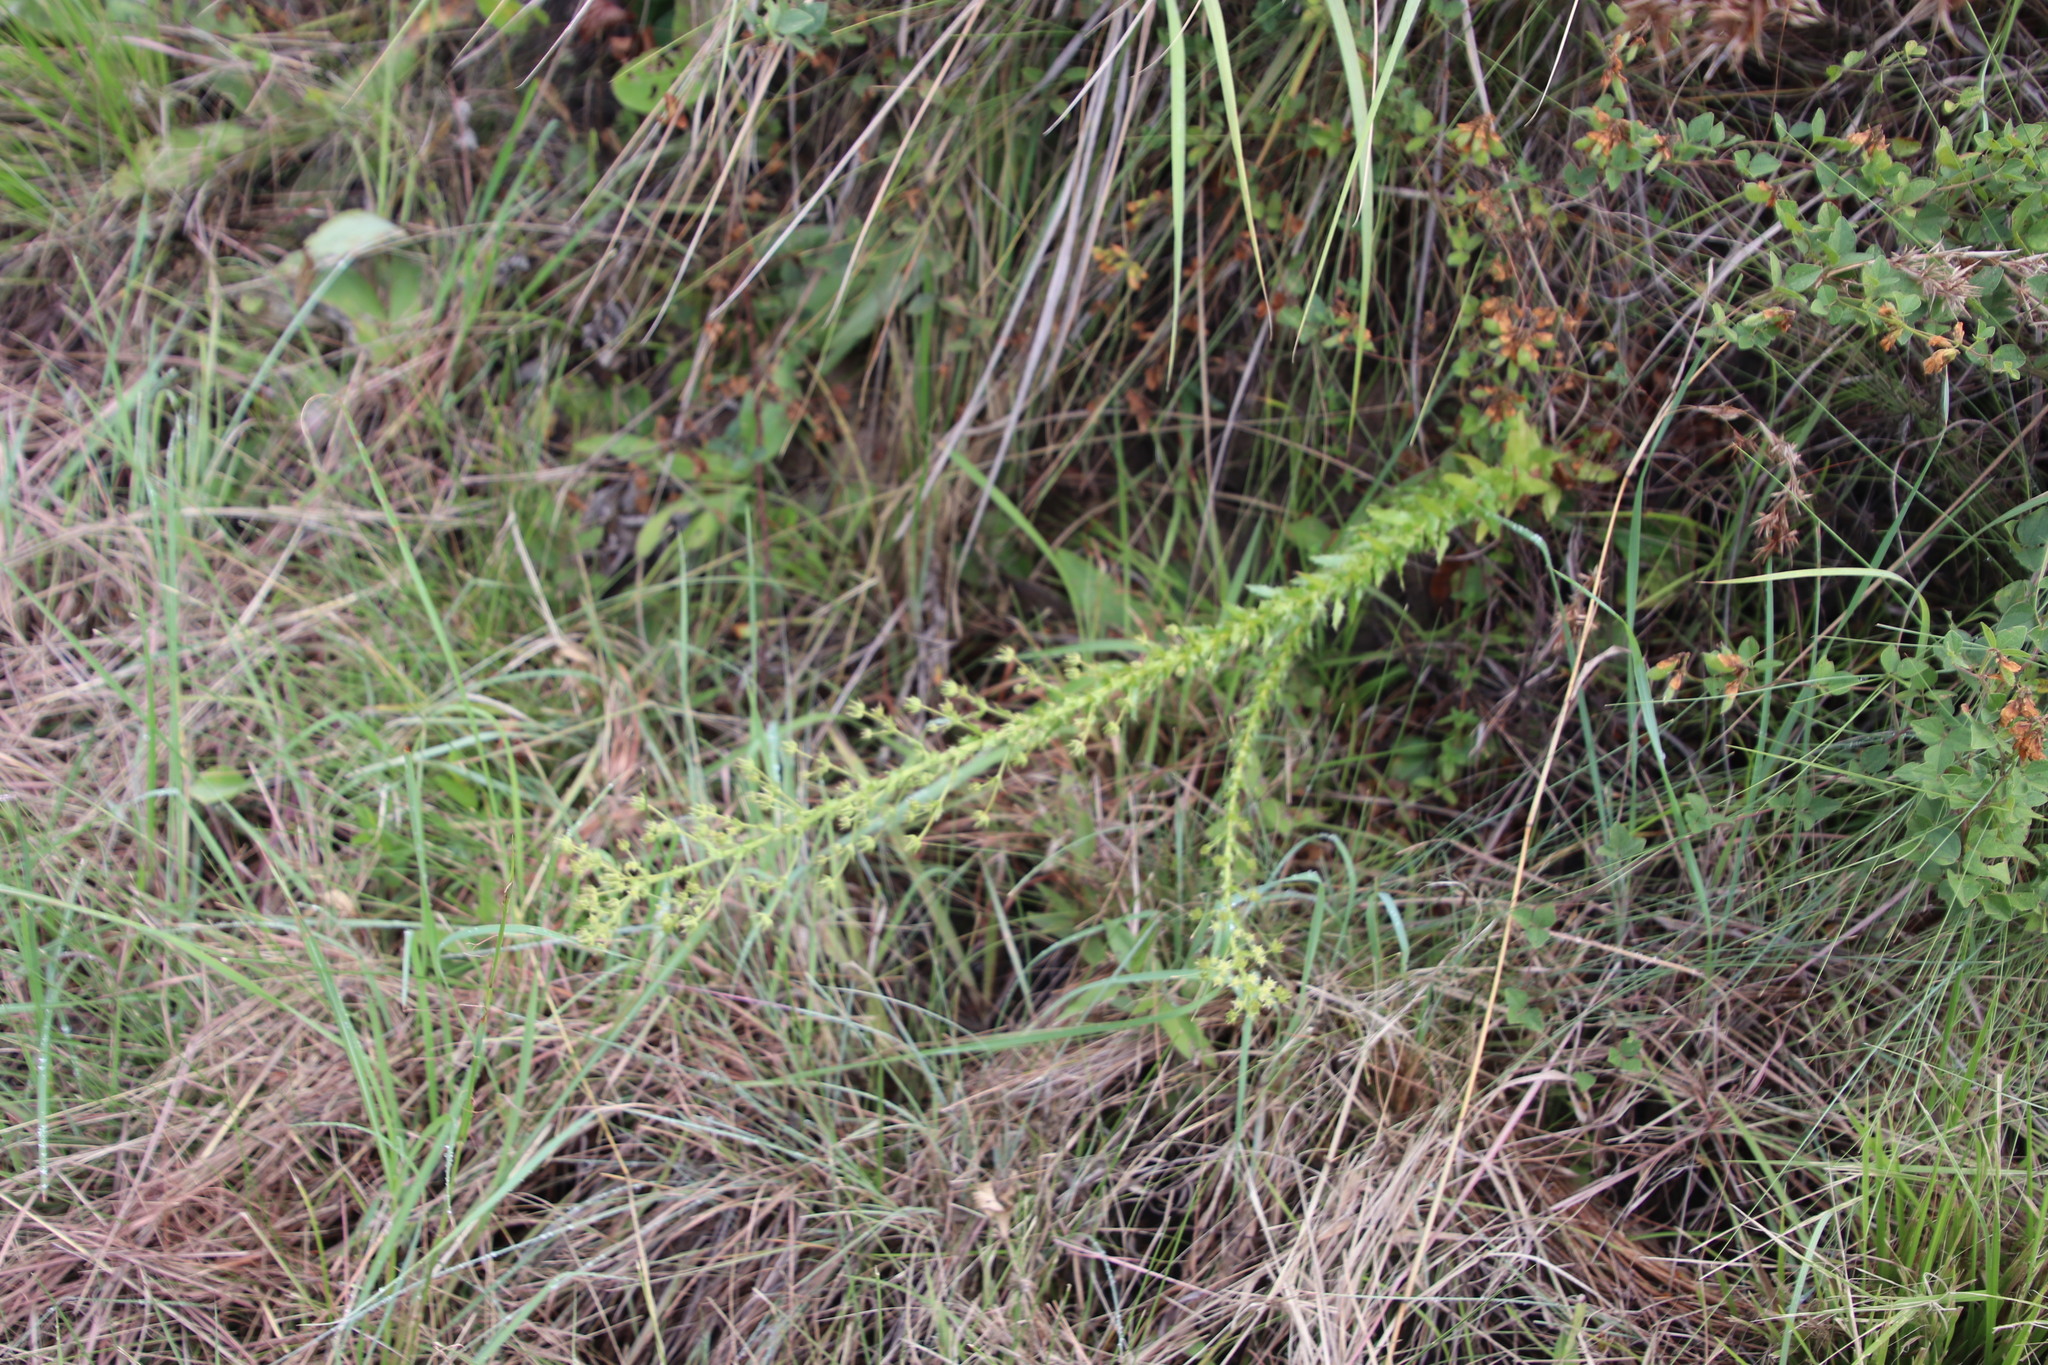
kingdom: Plantae
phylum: Tracheophyta
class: Magnoliopsida
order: Apiales
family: Apiaceae
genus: Alepidea
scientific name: Alepidea setifera
